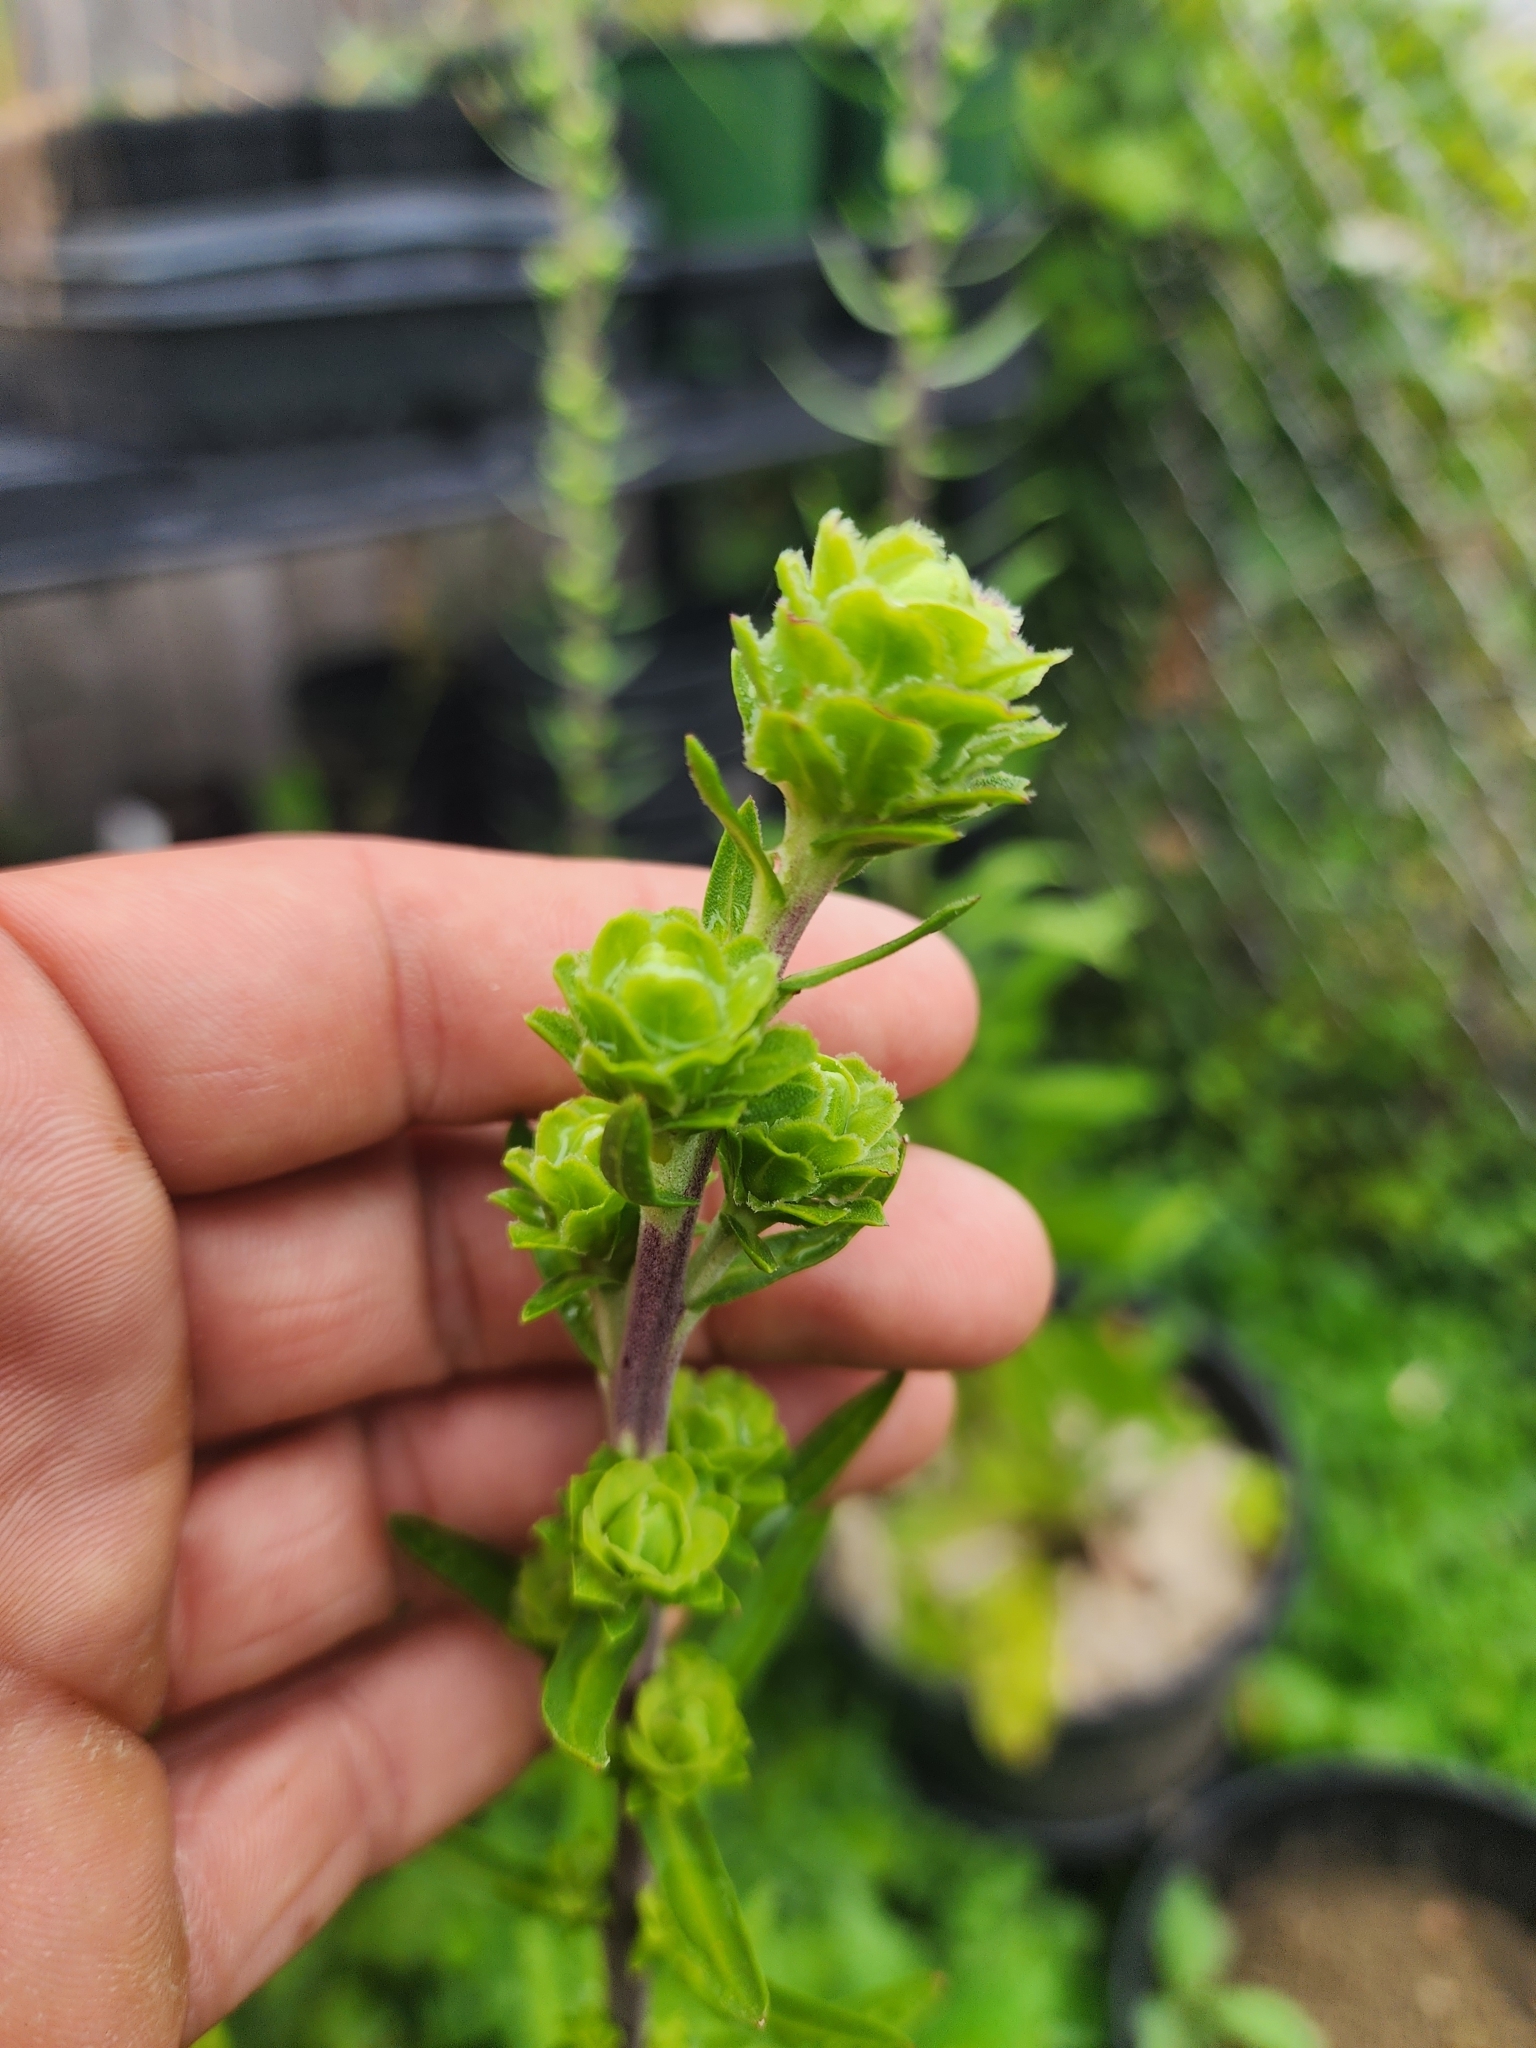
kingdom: Plantae
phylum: Tracheophyta
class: Magnoliopsida
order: Asterales
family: Asteraceae
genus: Liatris
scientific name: Liatris scariosa
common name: Northern gayfeather
